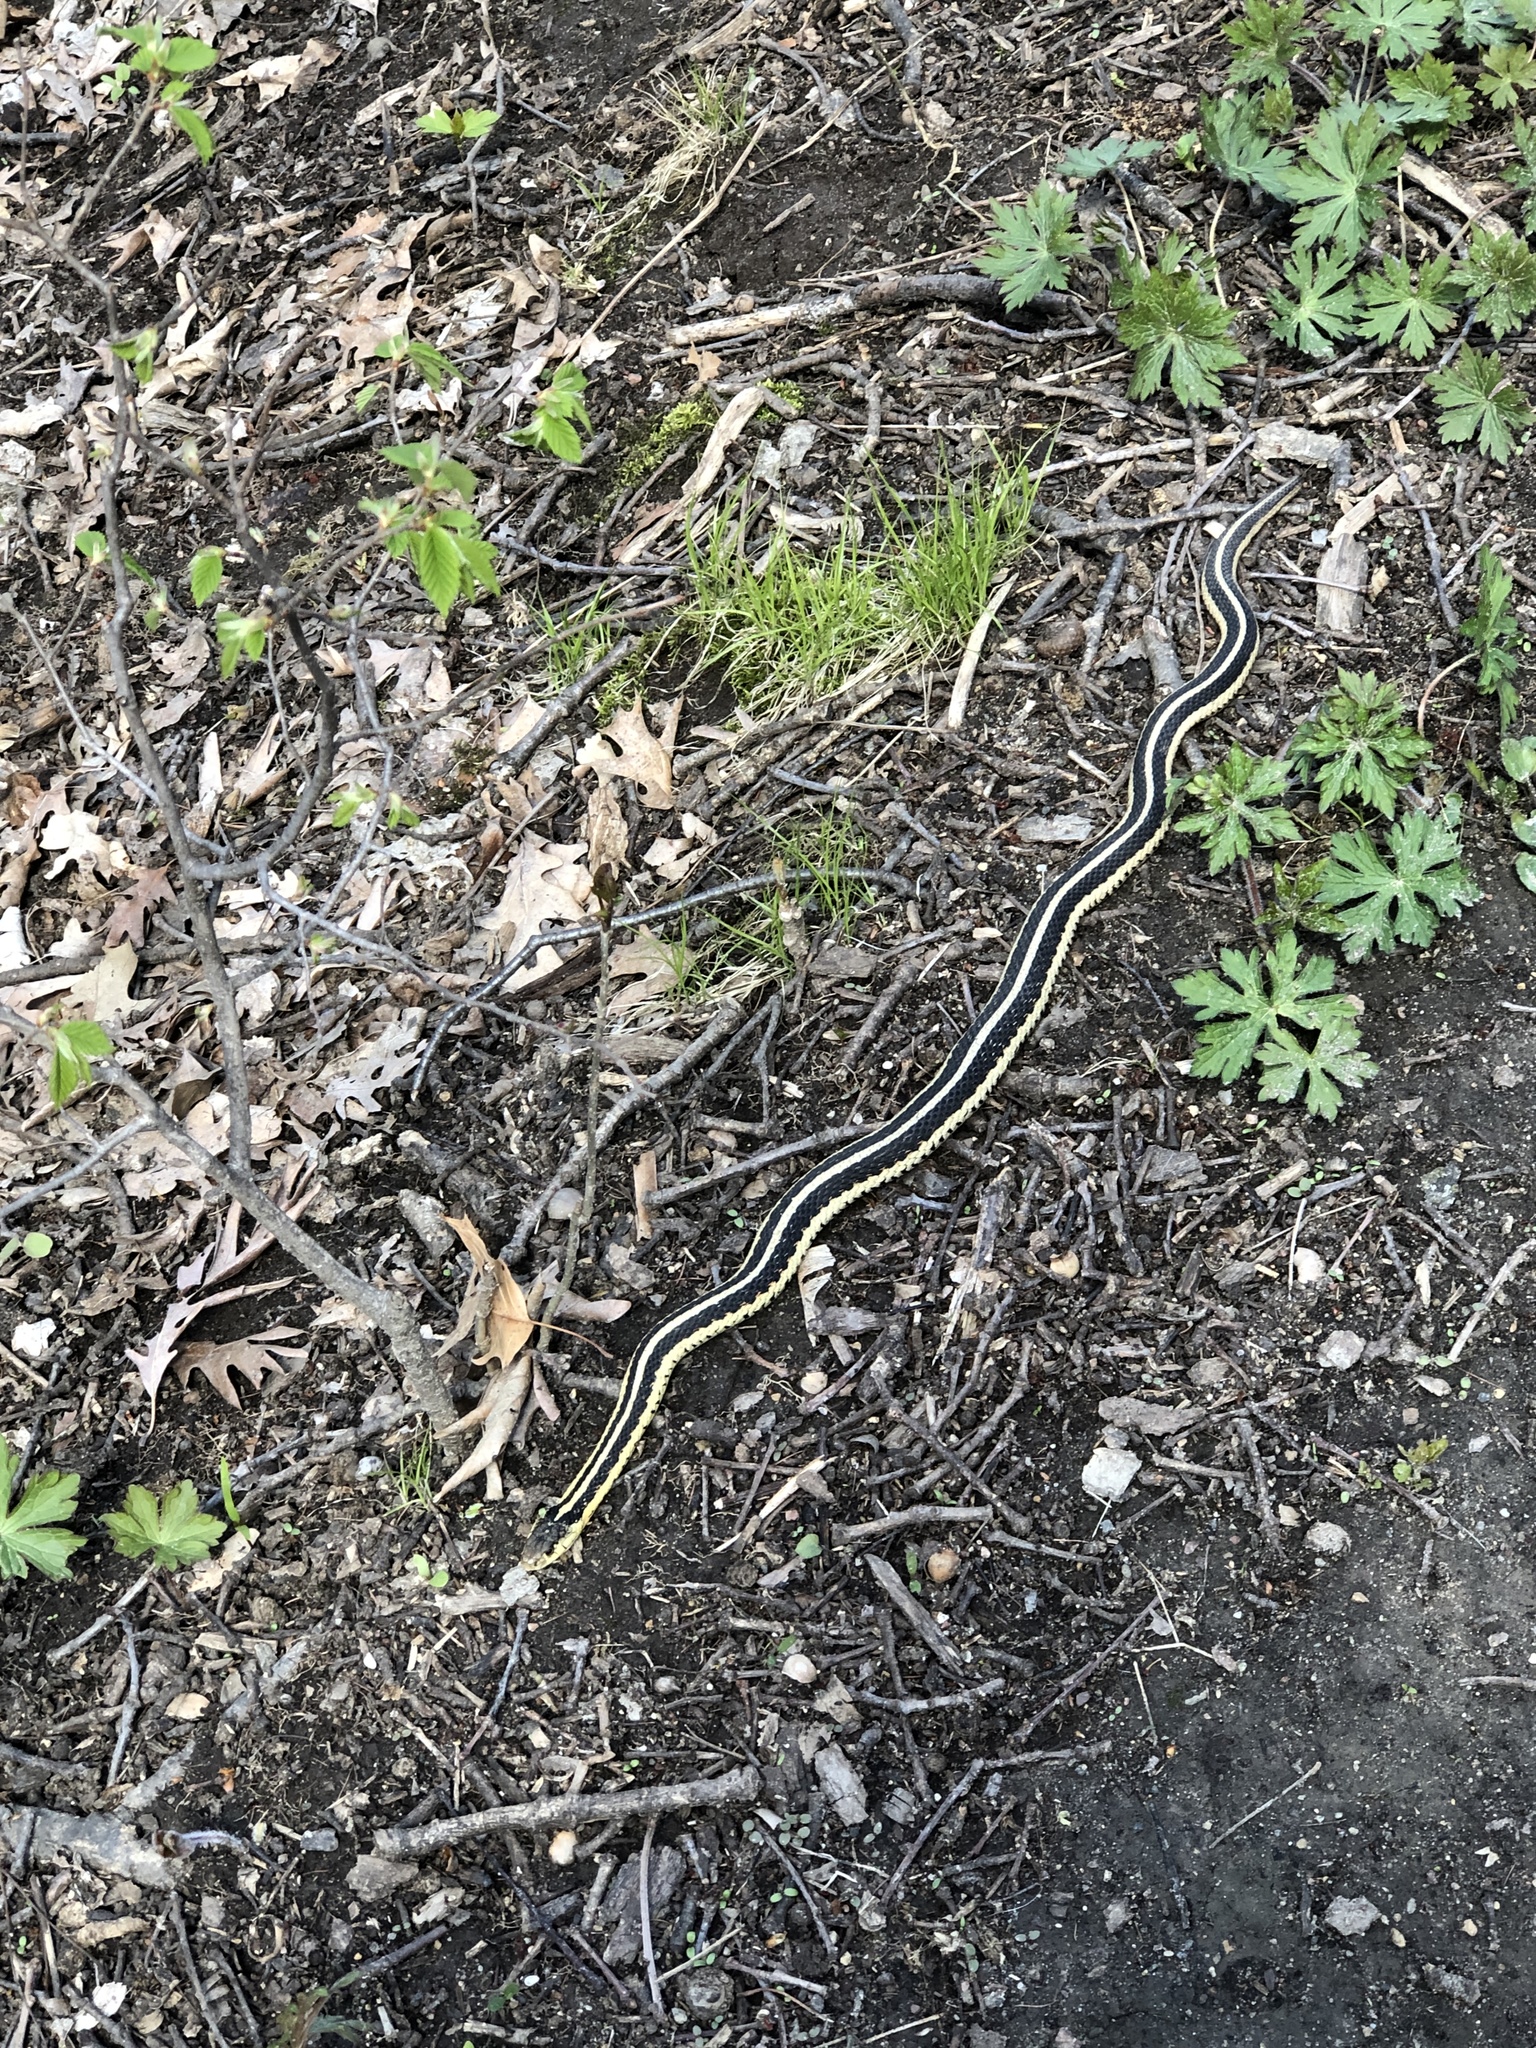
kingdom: Animalia
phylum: Chordata
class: Squamata
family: Colubridae
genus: Thamnophis
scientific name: Thamnophis sirtalis
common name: Common garter snake
